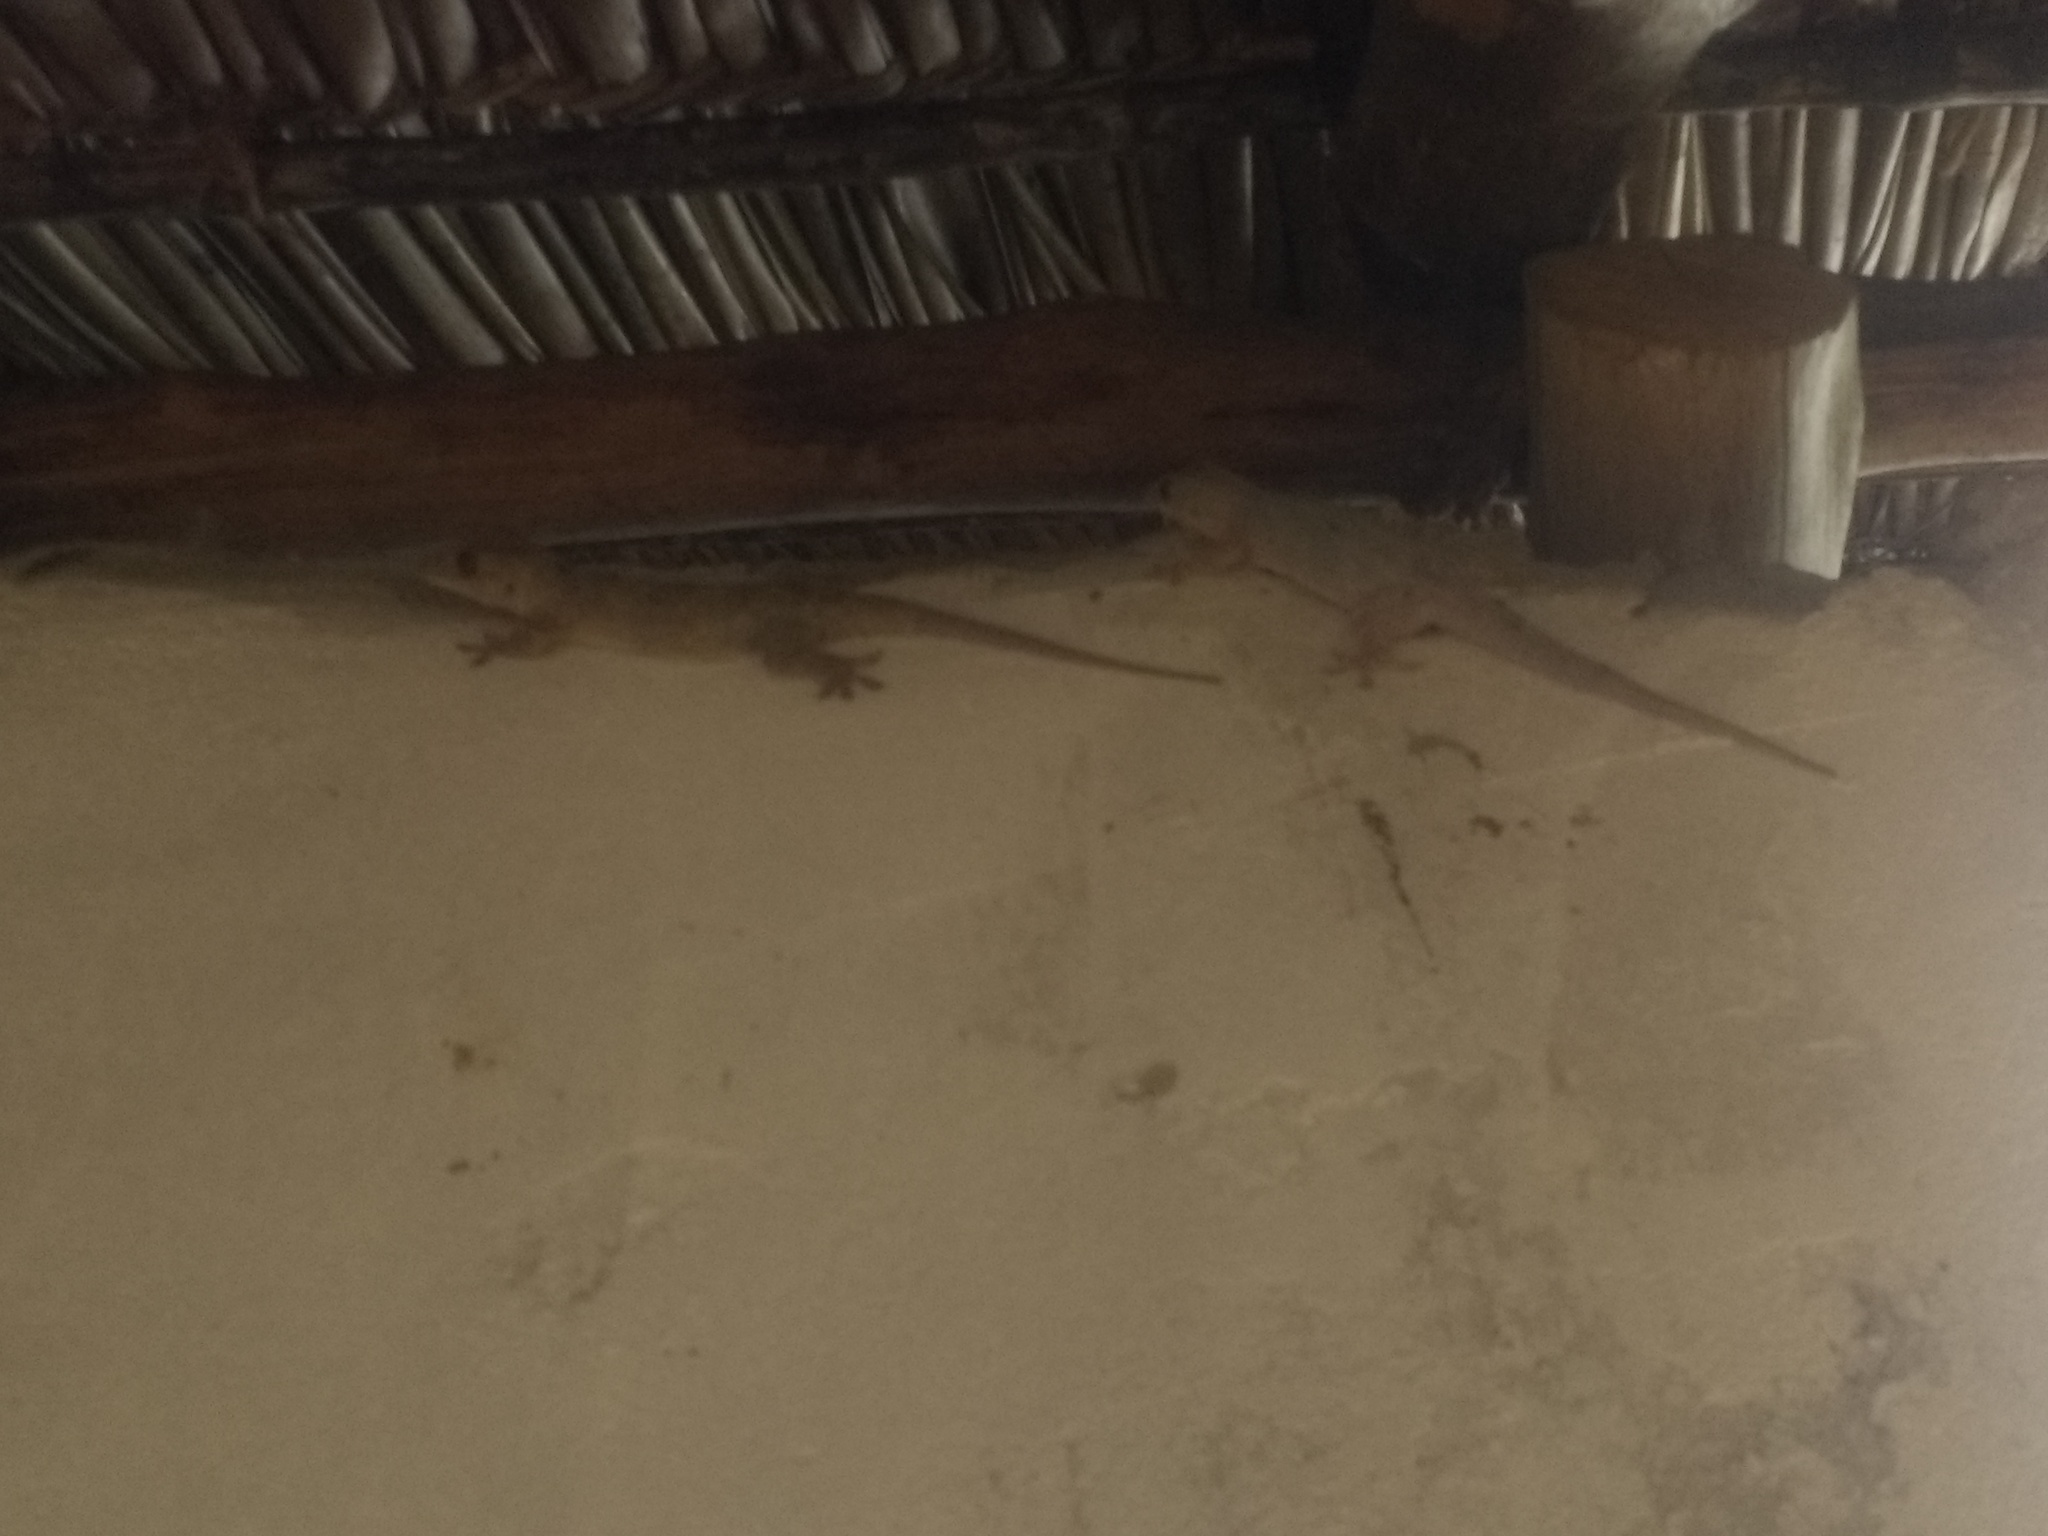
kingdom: Animalia
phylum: Chordata
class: Squamata
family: Gekkonidae
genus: Hemidactylus
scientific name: Hemidactylus platycephalus
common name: Baobab gecko
